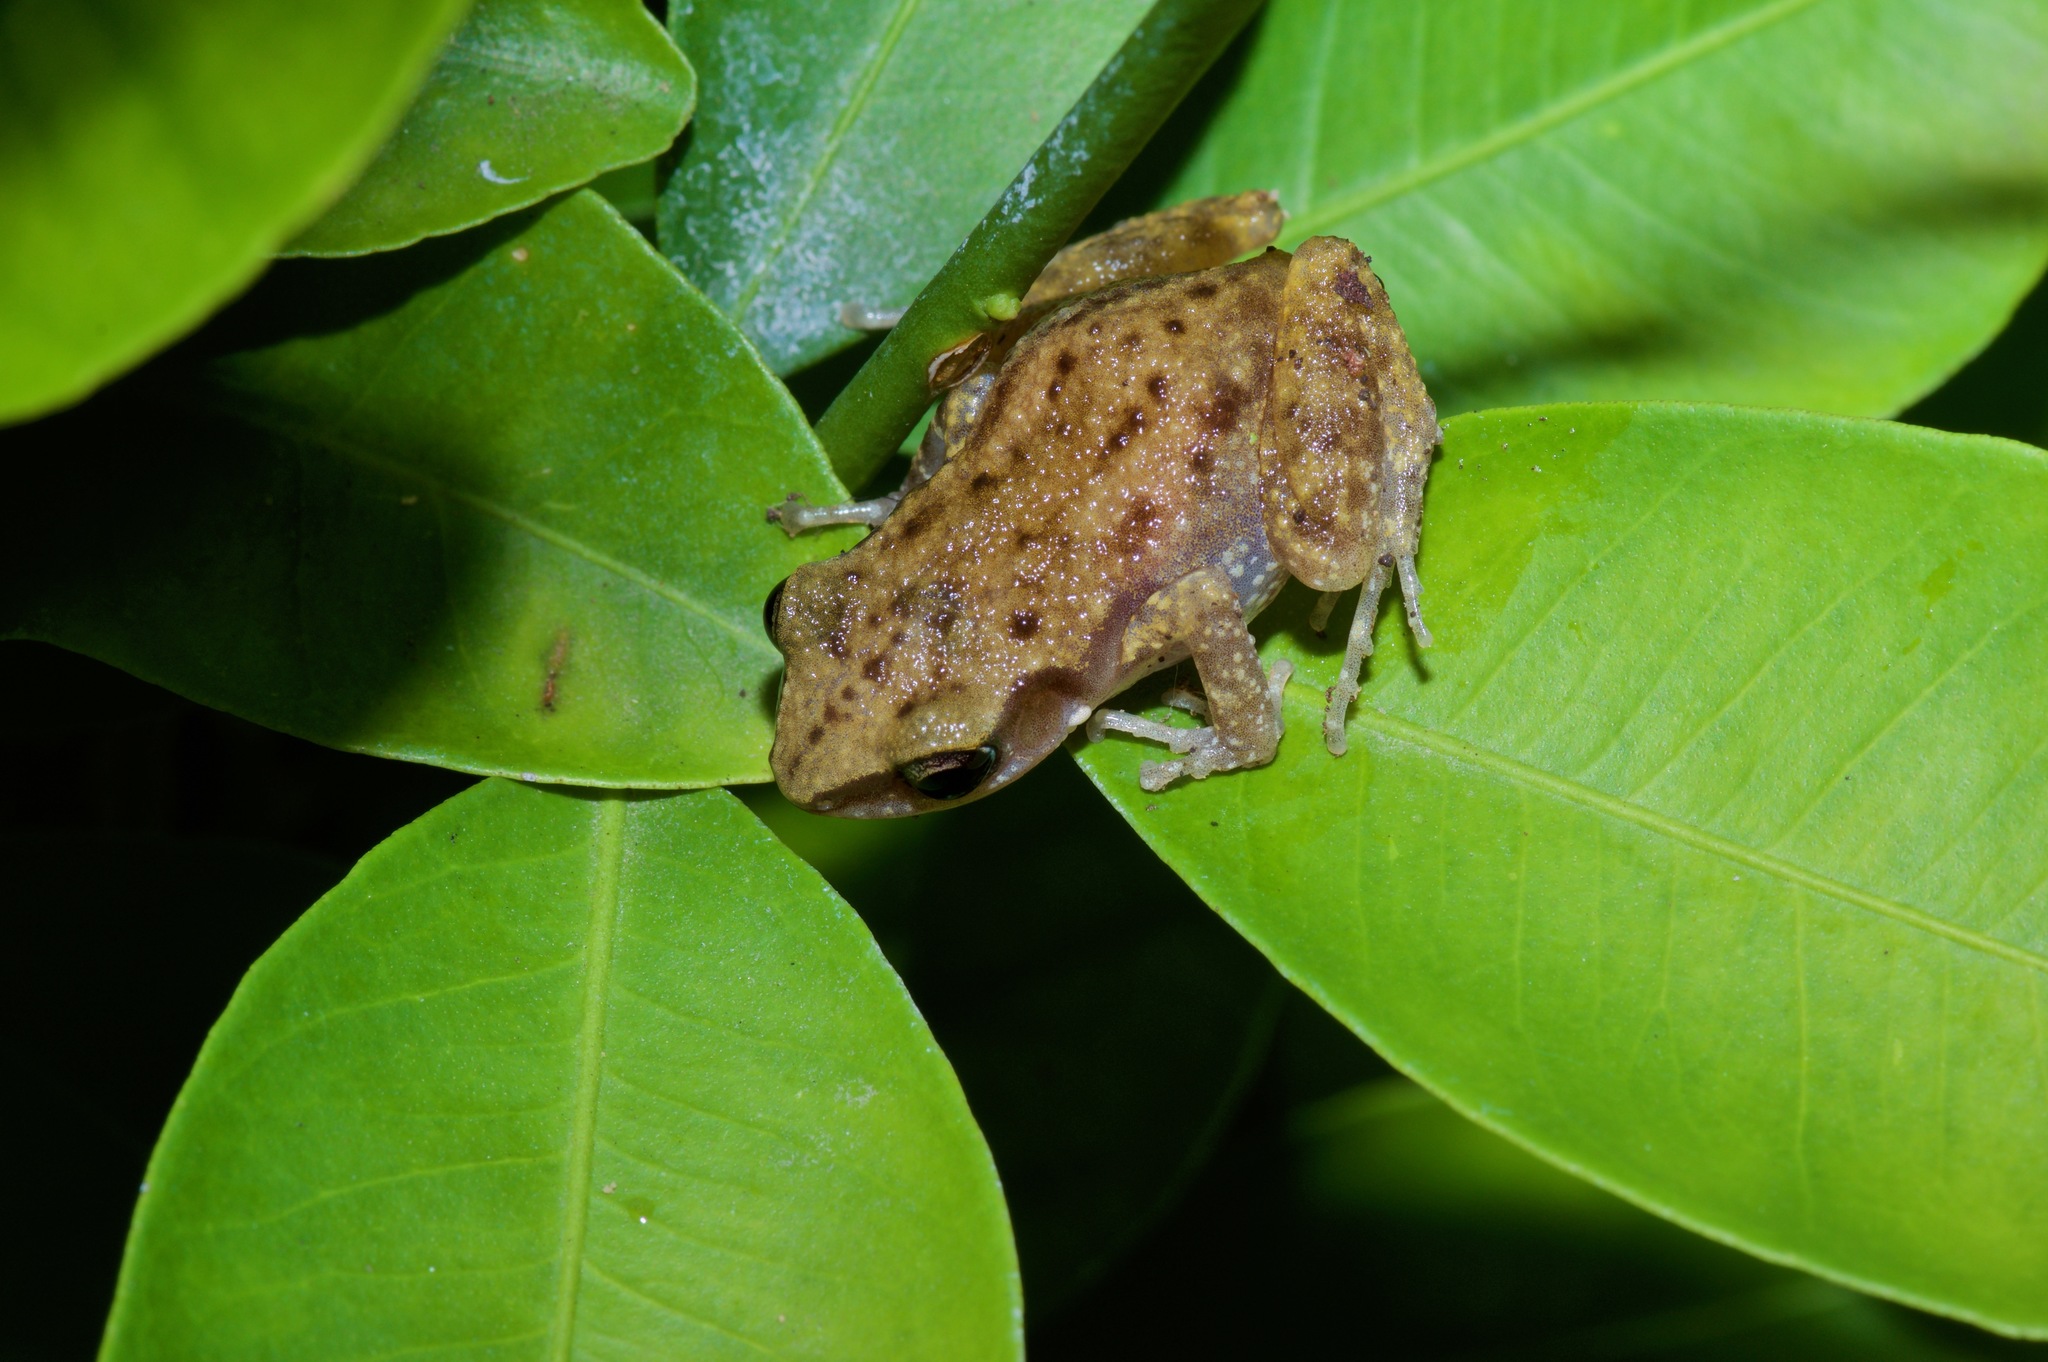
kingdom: Animalia
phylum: Chordata
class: Amphibia
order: Anura
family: Eleutherodactylidae
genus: Eleutherodactylus
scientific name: Eleutherodactylus campi
